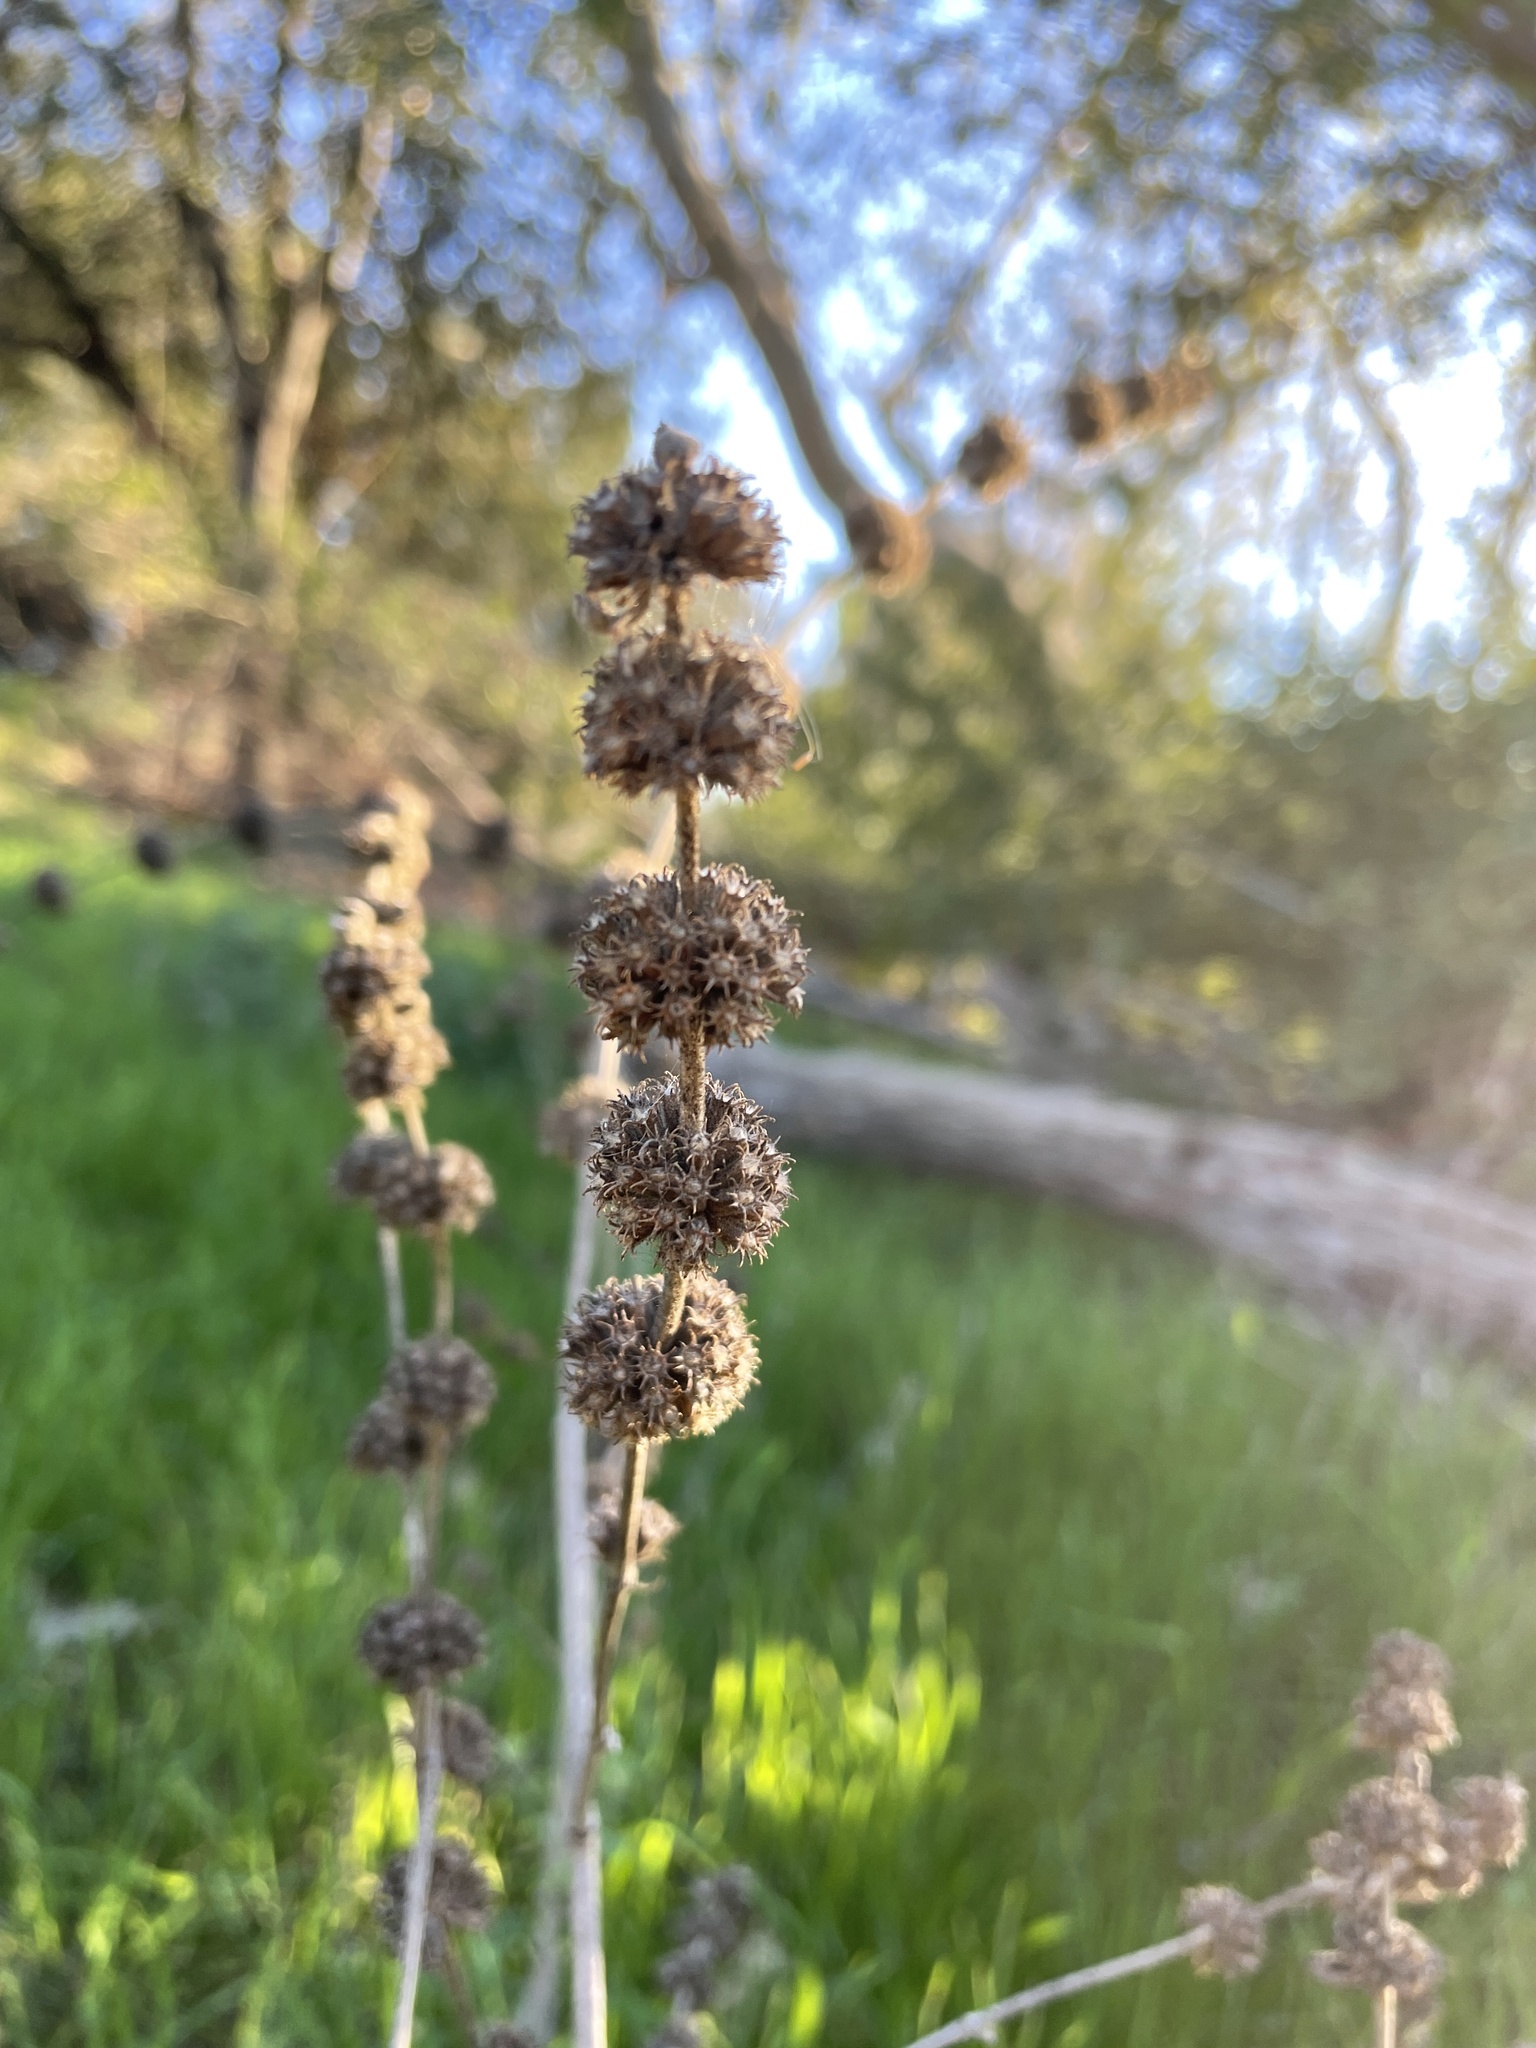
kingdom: Plantae
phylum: Tracheophyta
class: Magnoliopsida
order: Lamiales
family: Lamiaceae
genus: Marrubium
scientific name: Marrubium vulgare
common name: Horehound
